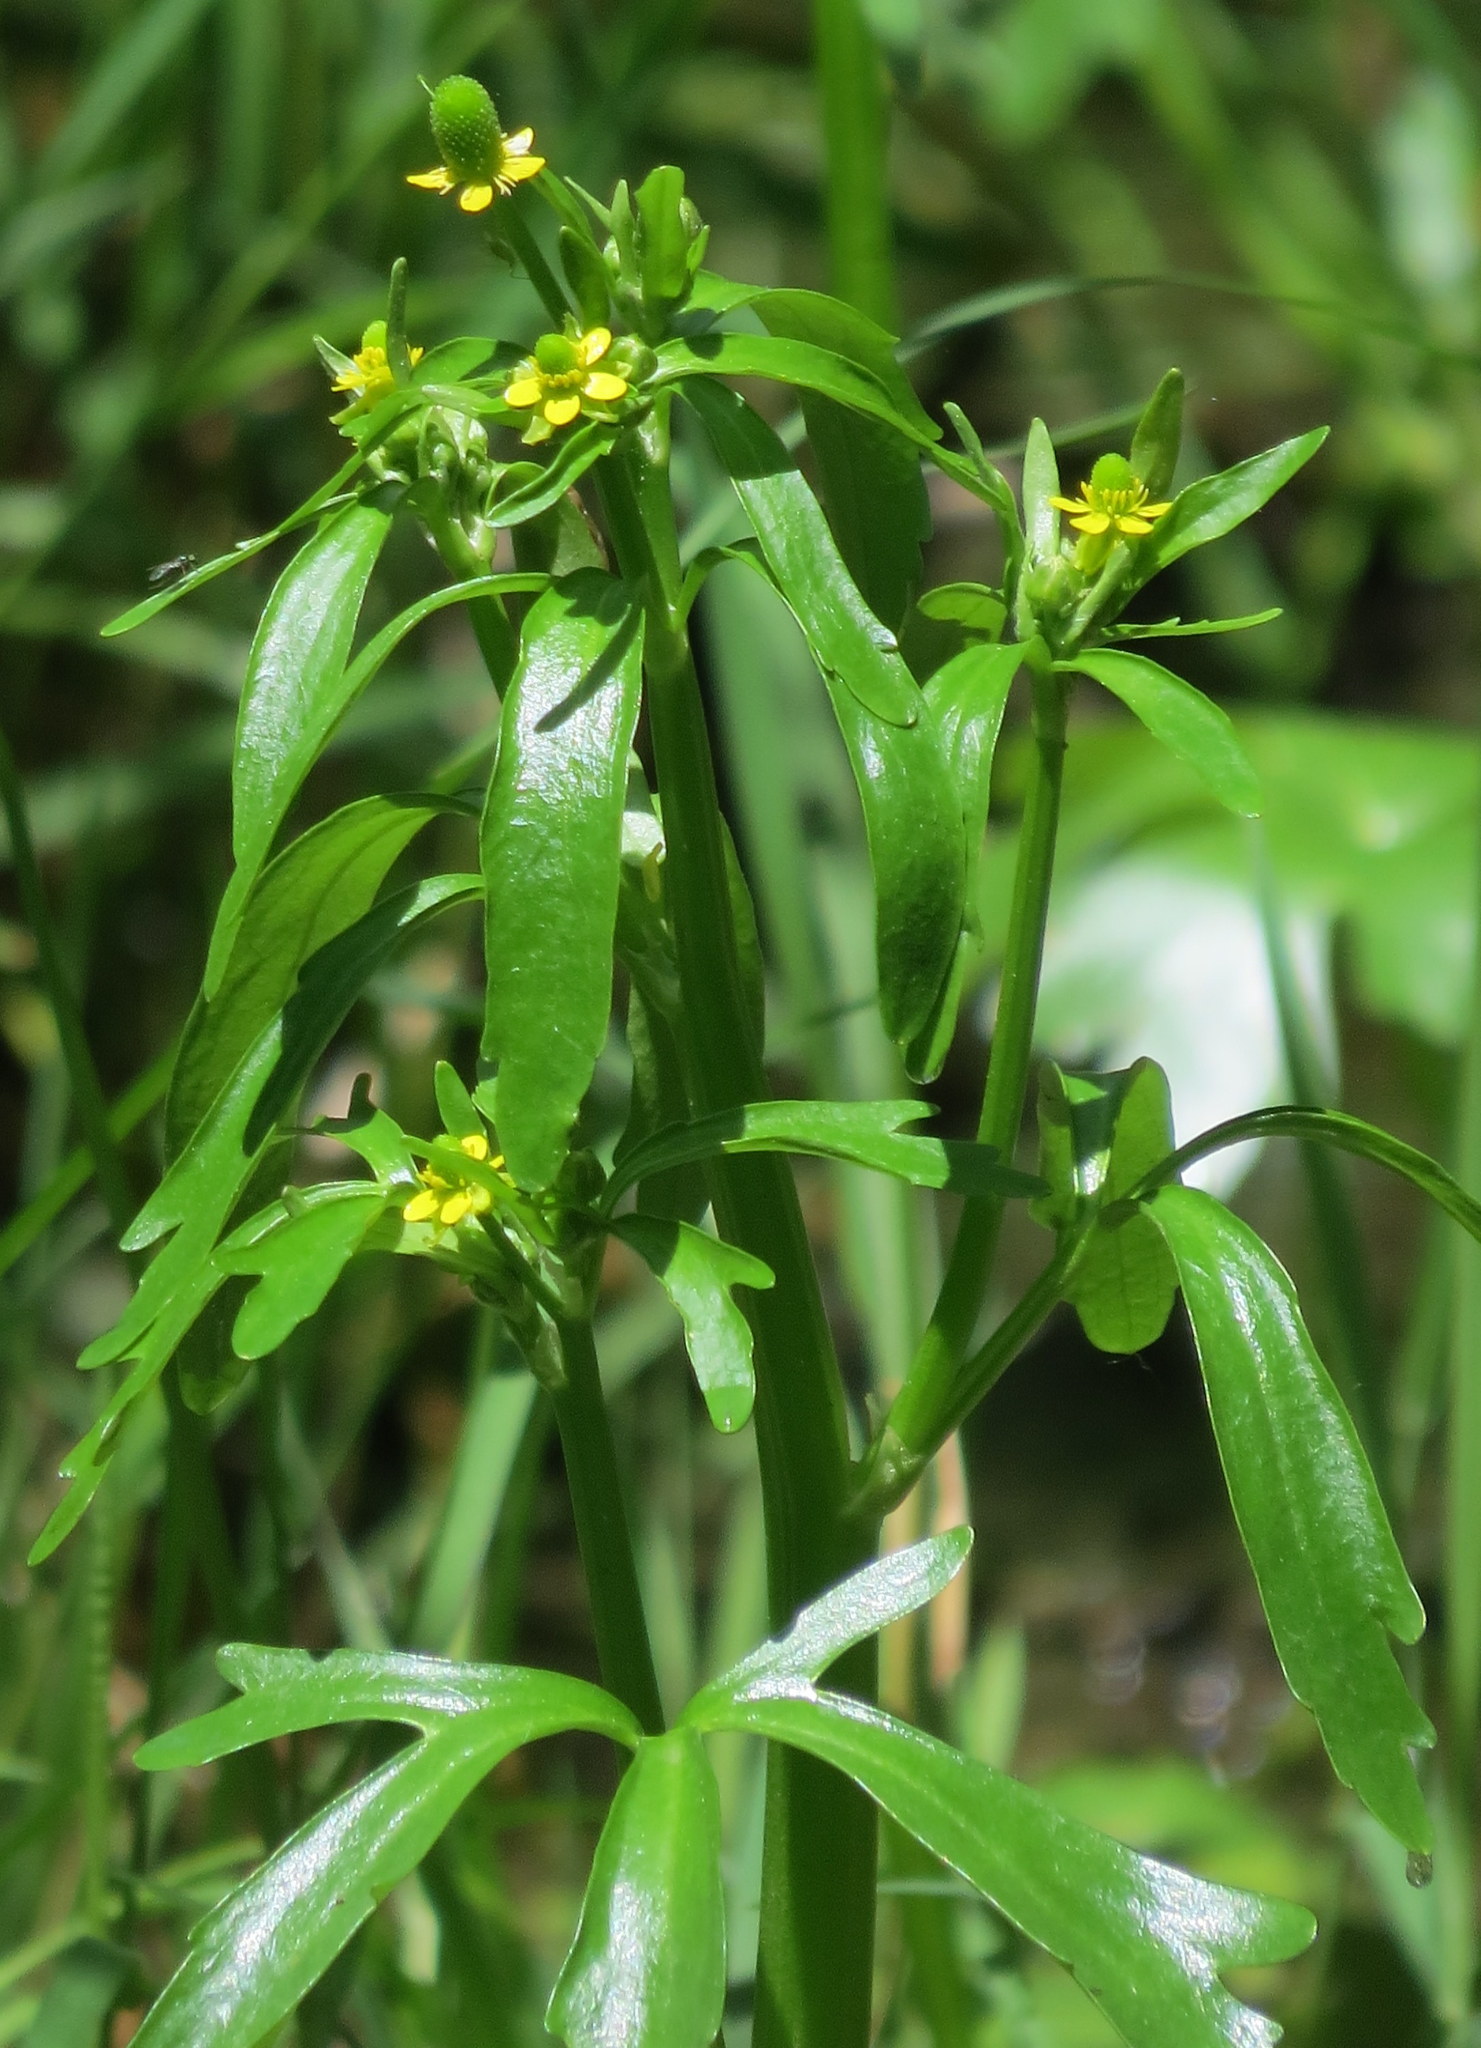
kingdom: Plantae
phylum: Tracheophyta
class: Magnoliopsida
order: Ranunculales
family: Ranunculaceae
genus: Ranunculus
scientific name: Ranunculus sceleratus
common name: Celery-leaved buttercup
